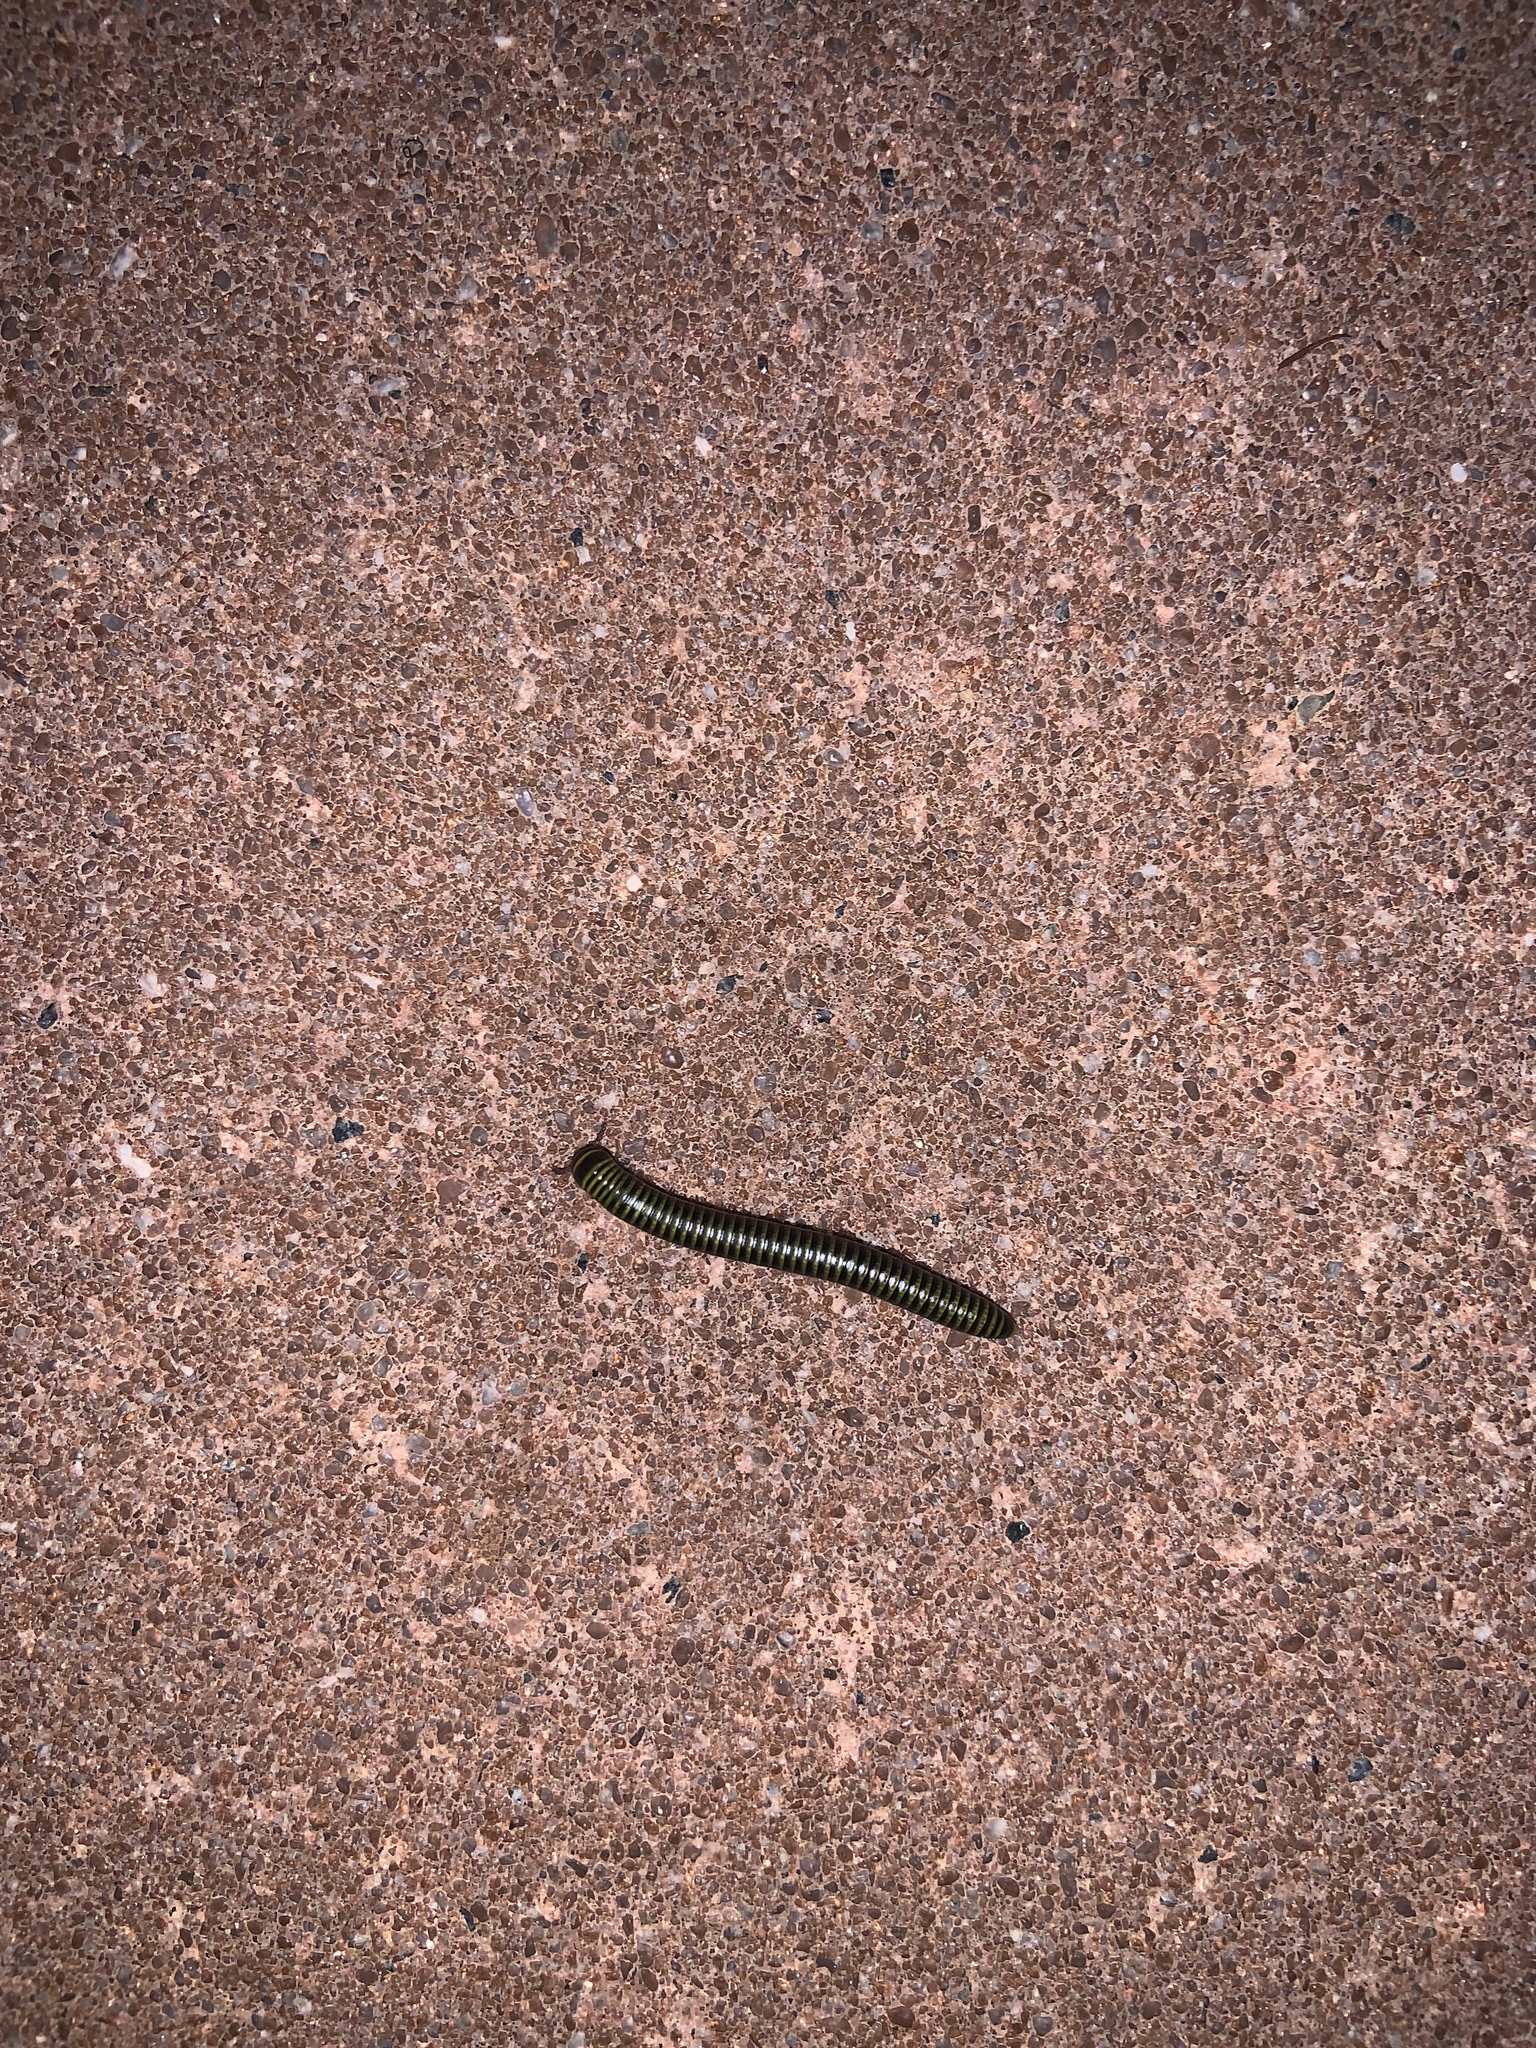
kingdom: Animalia
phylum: Arthropoda
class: Diplopoda
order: Spirobolida
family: Rhinocricidae
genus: Anadenobolus
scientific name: Anadenobolus monilicornis
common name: Caribbean millipede
